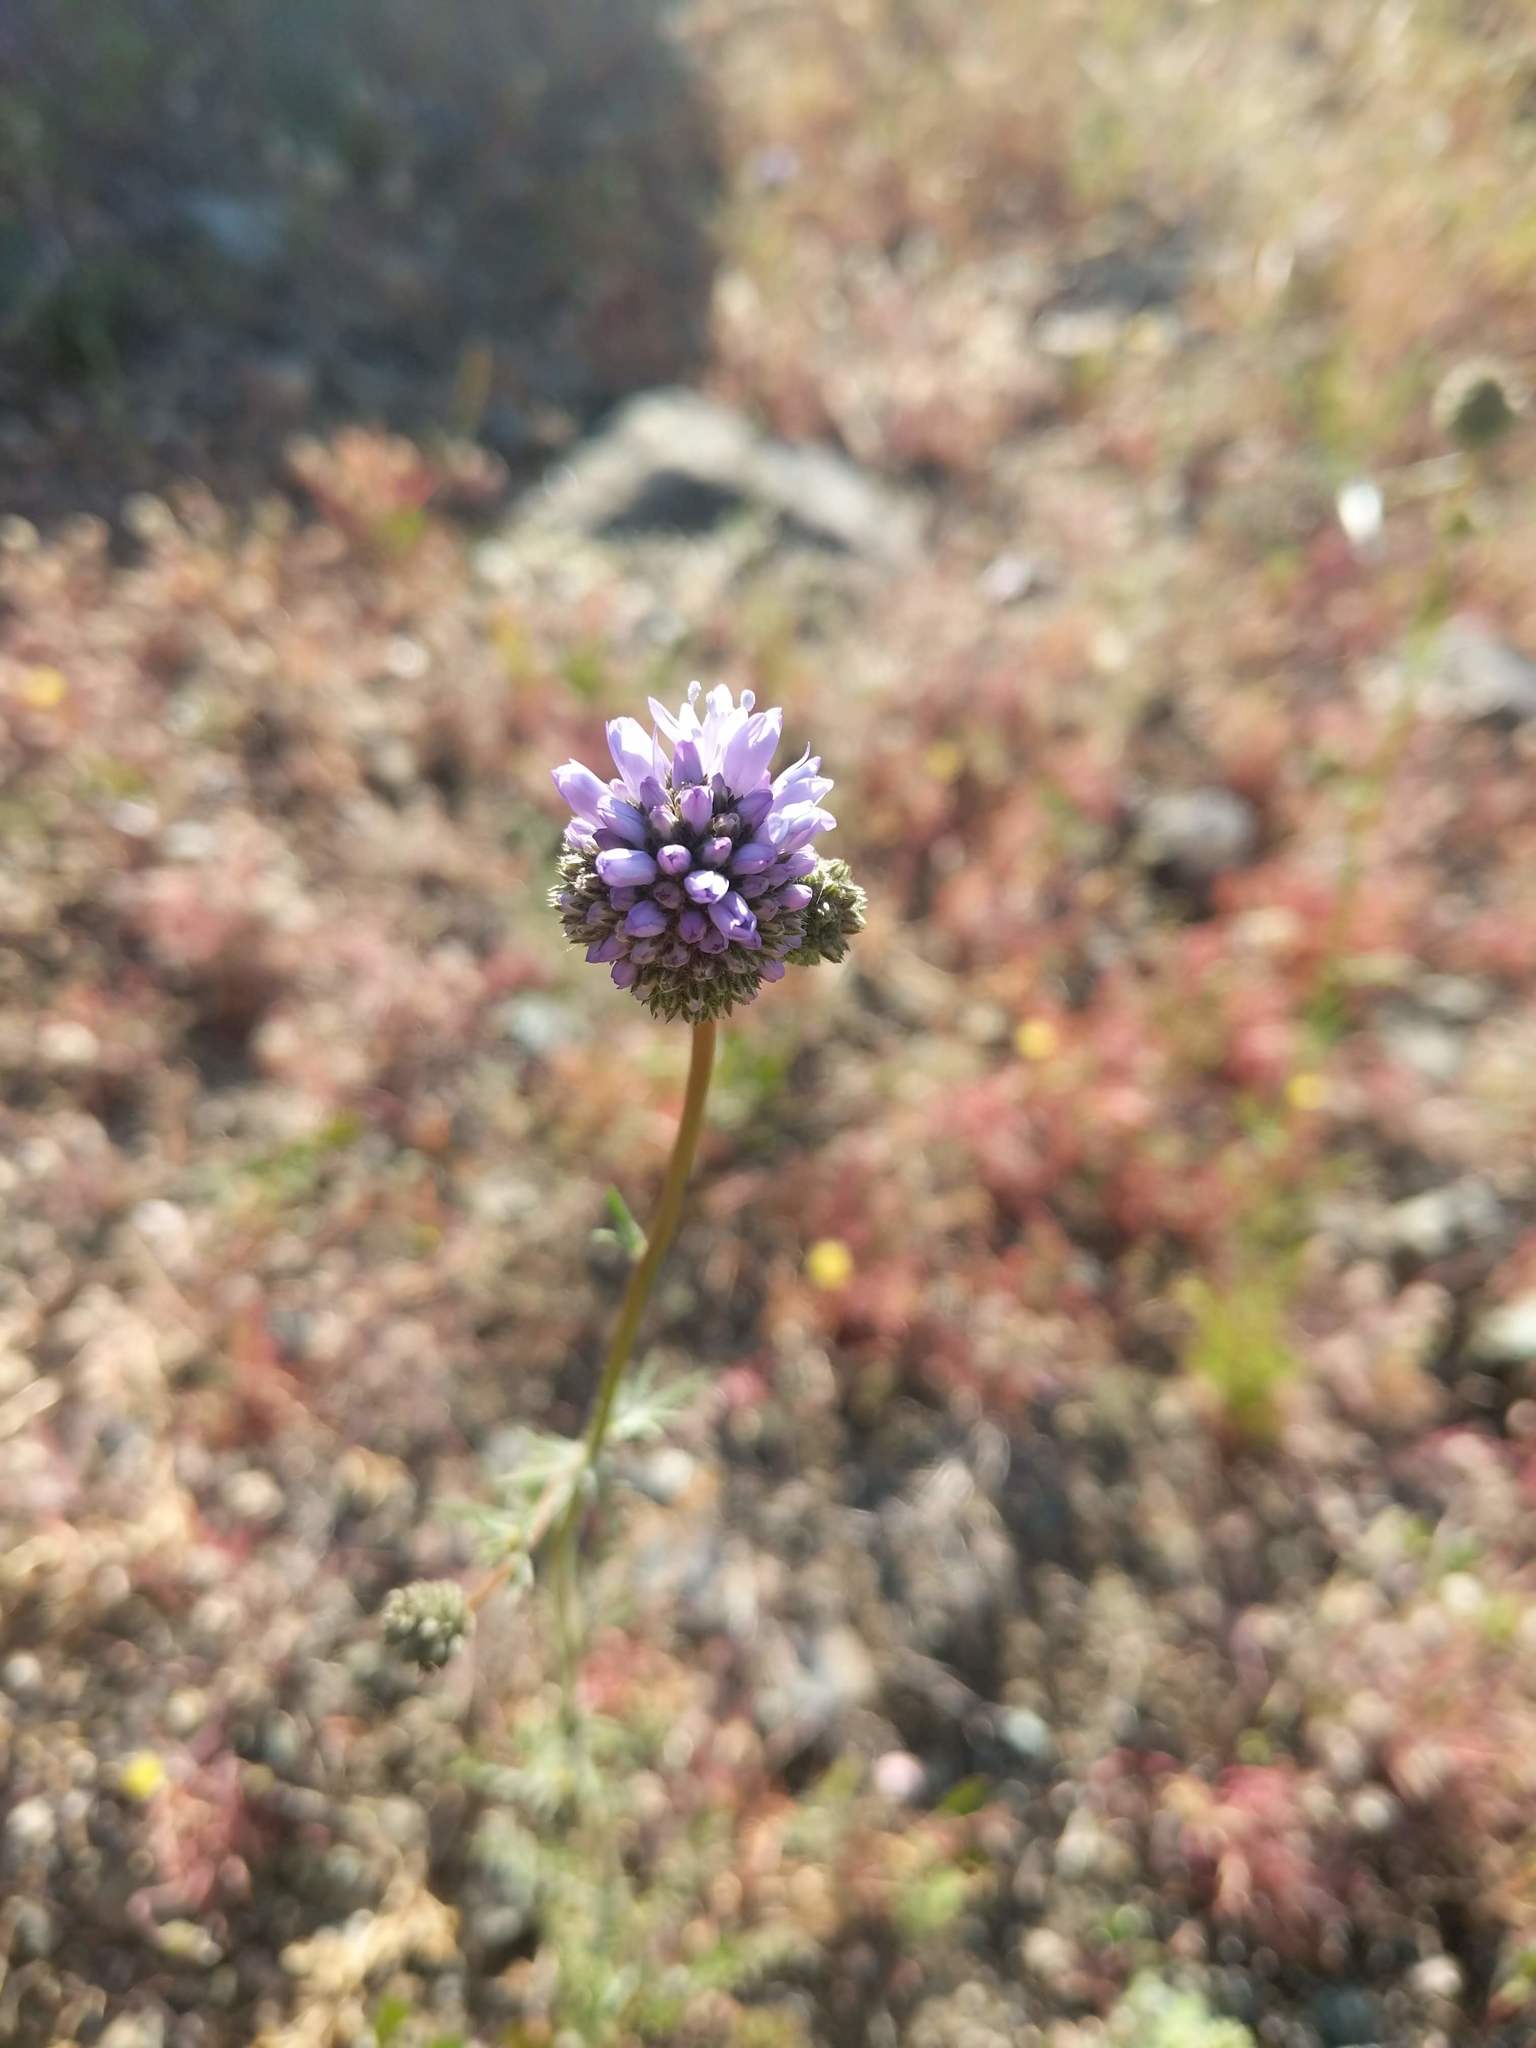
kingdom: Plantae
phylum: Tracheophyta
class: Magnoliopsida
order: Ericales
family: Polemoniaceae
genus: Gilia
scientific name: Gilia capitata
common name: Bluehead gilia
